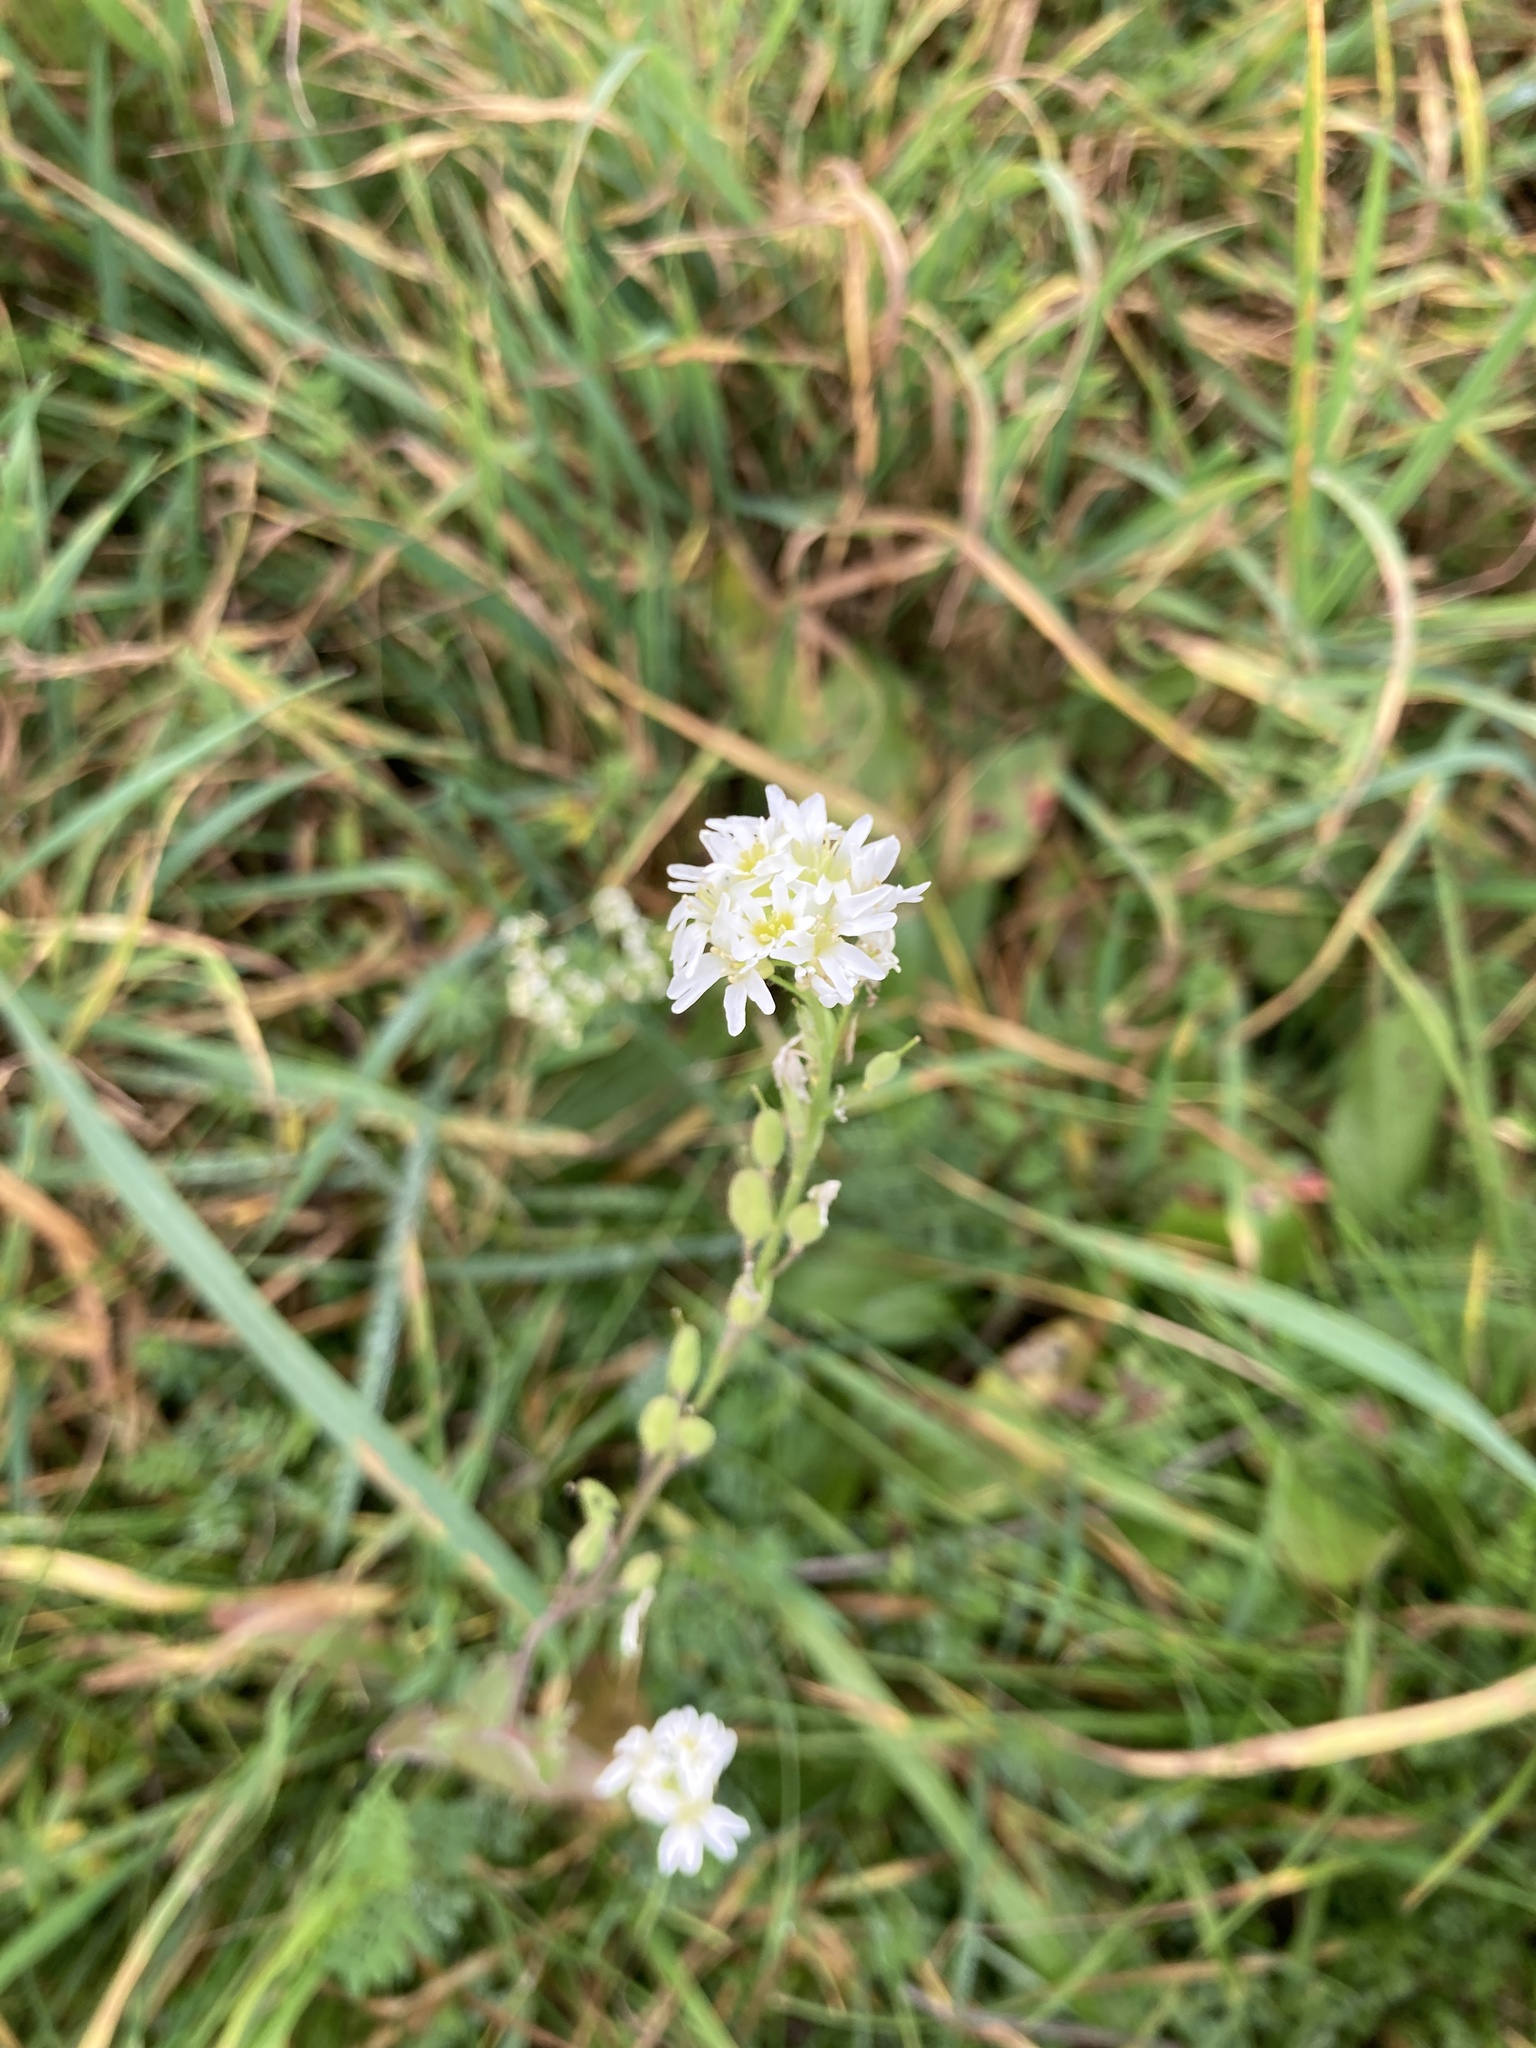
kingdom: Plantae
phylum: Tracheophyta
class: Magnoliopsida
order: Brassicales
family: Brassicaceae
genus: Berteroa
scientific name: Berteroa incana
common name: Hoary alison
